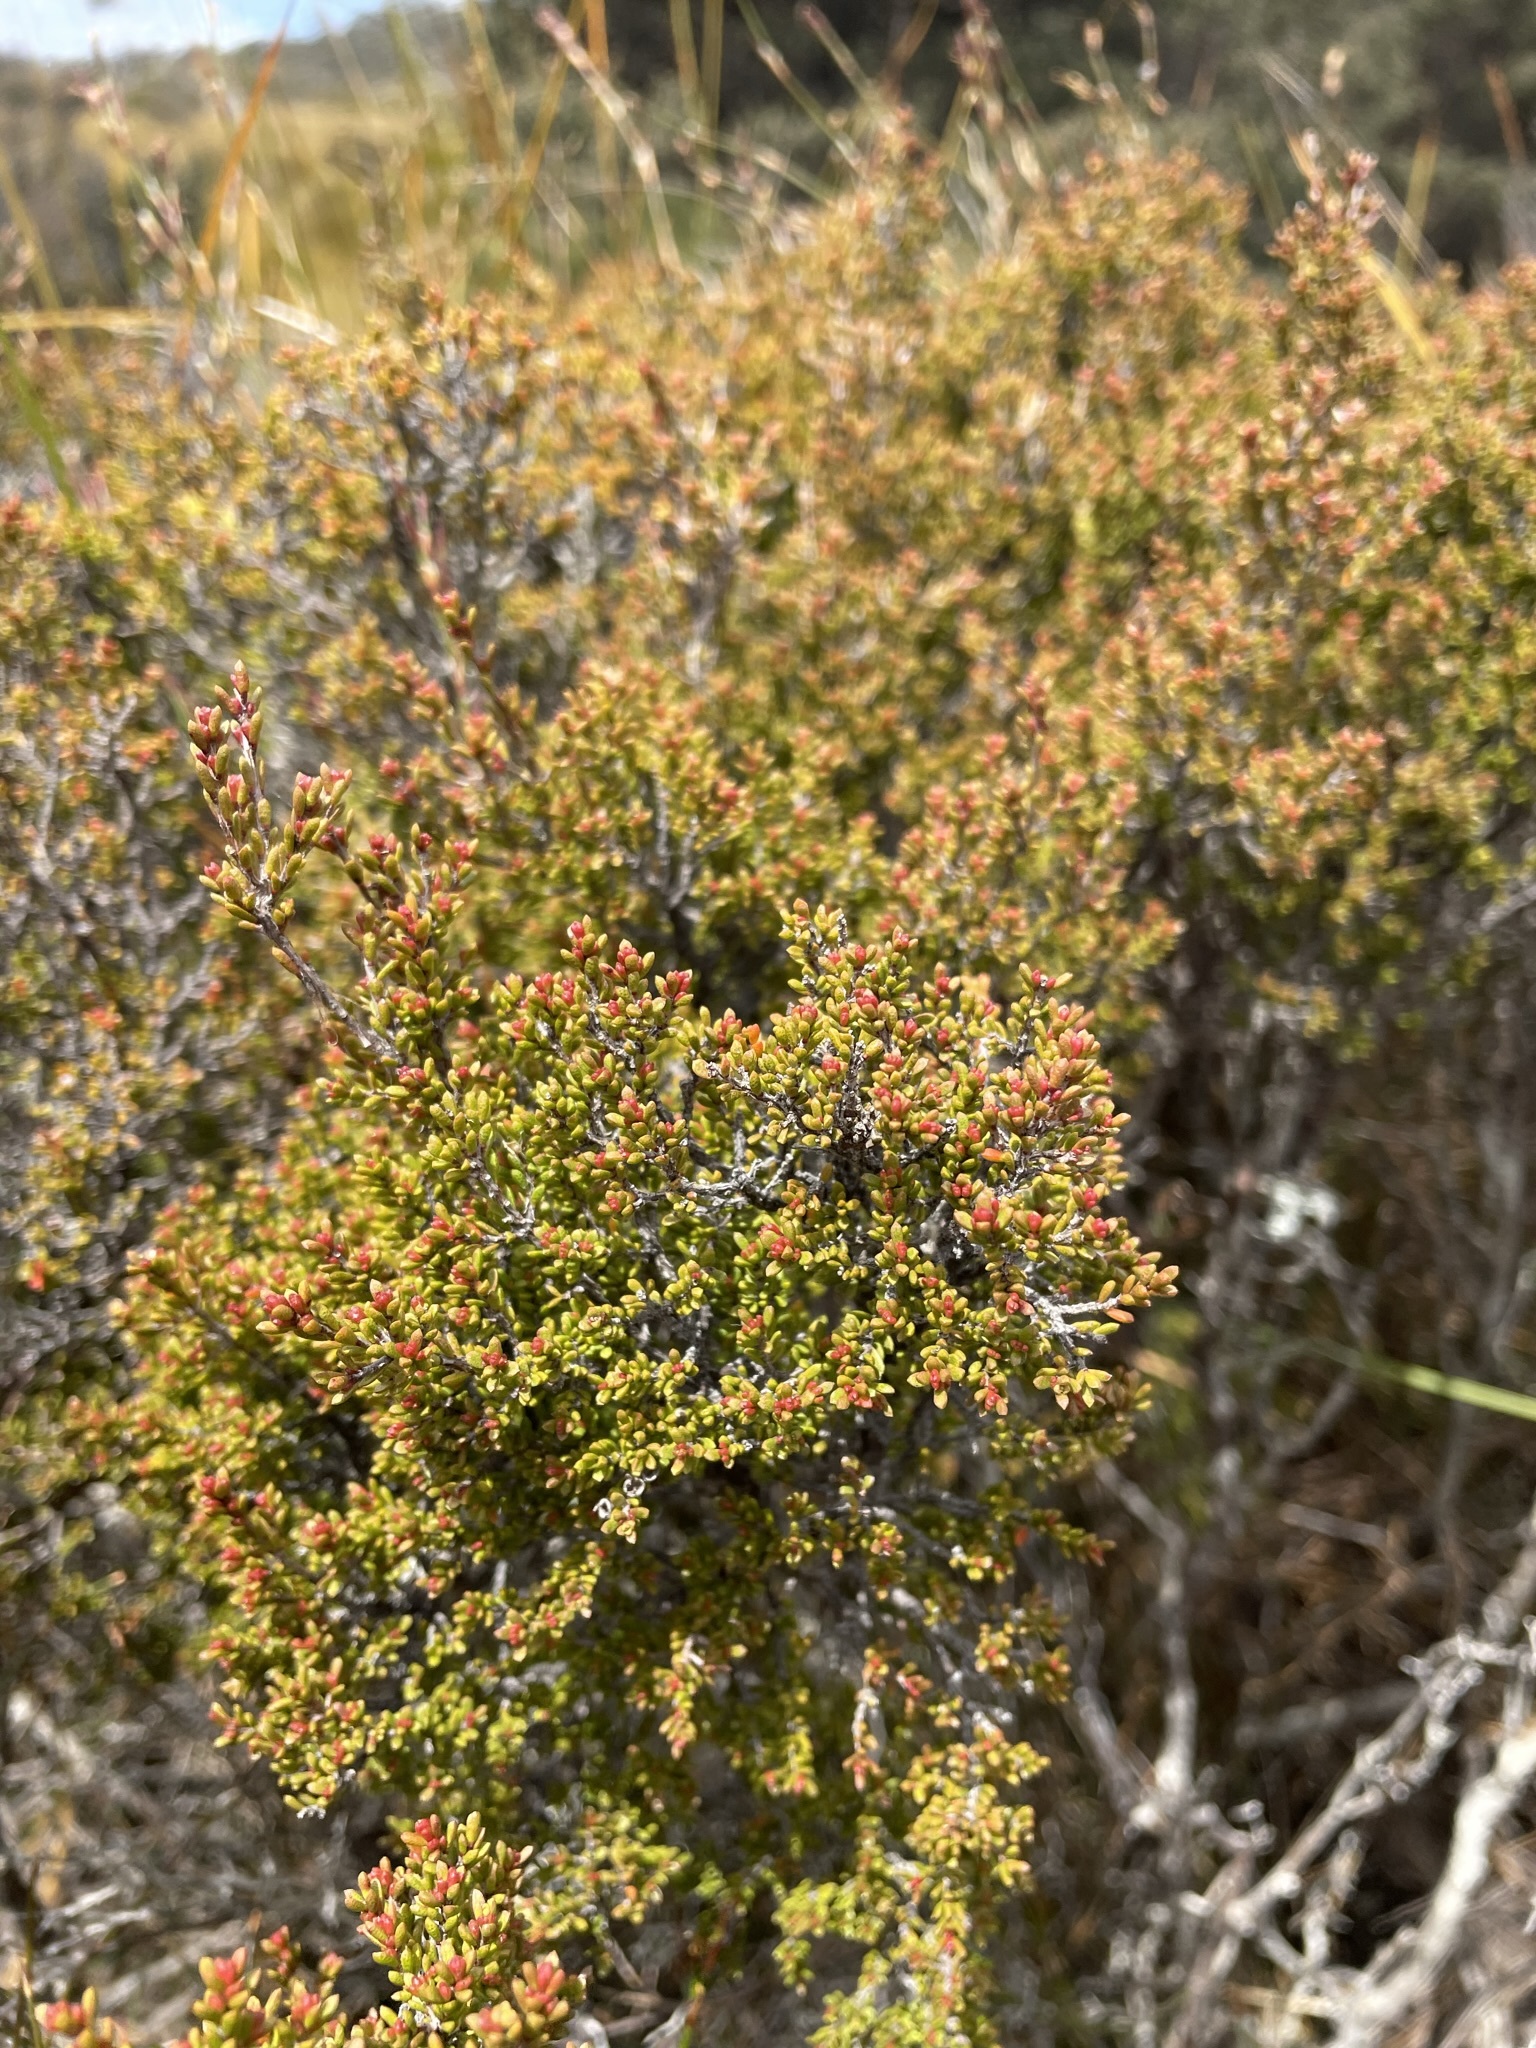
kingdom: Plantae
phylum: Tracheophyta
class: Magnoliopsida
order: Myrtales
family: Myrtaceae
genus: Baeckea
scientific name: Baeckea gunniana
